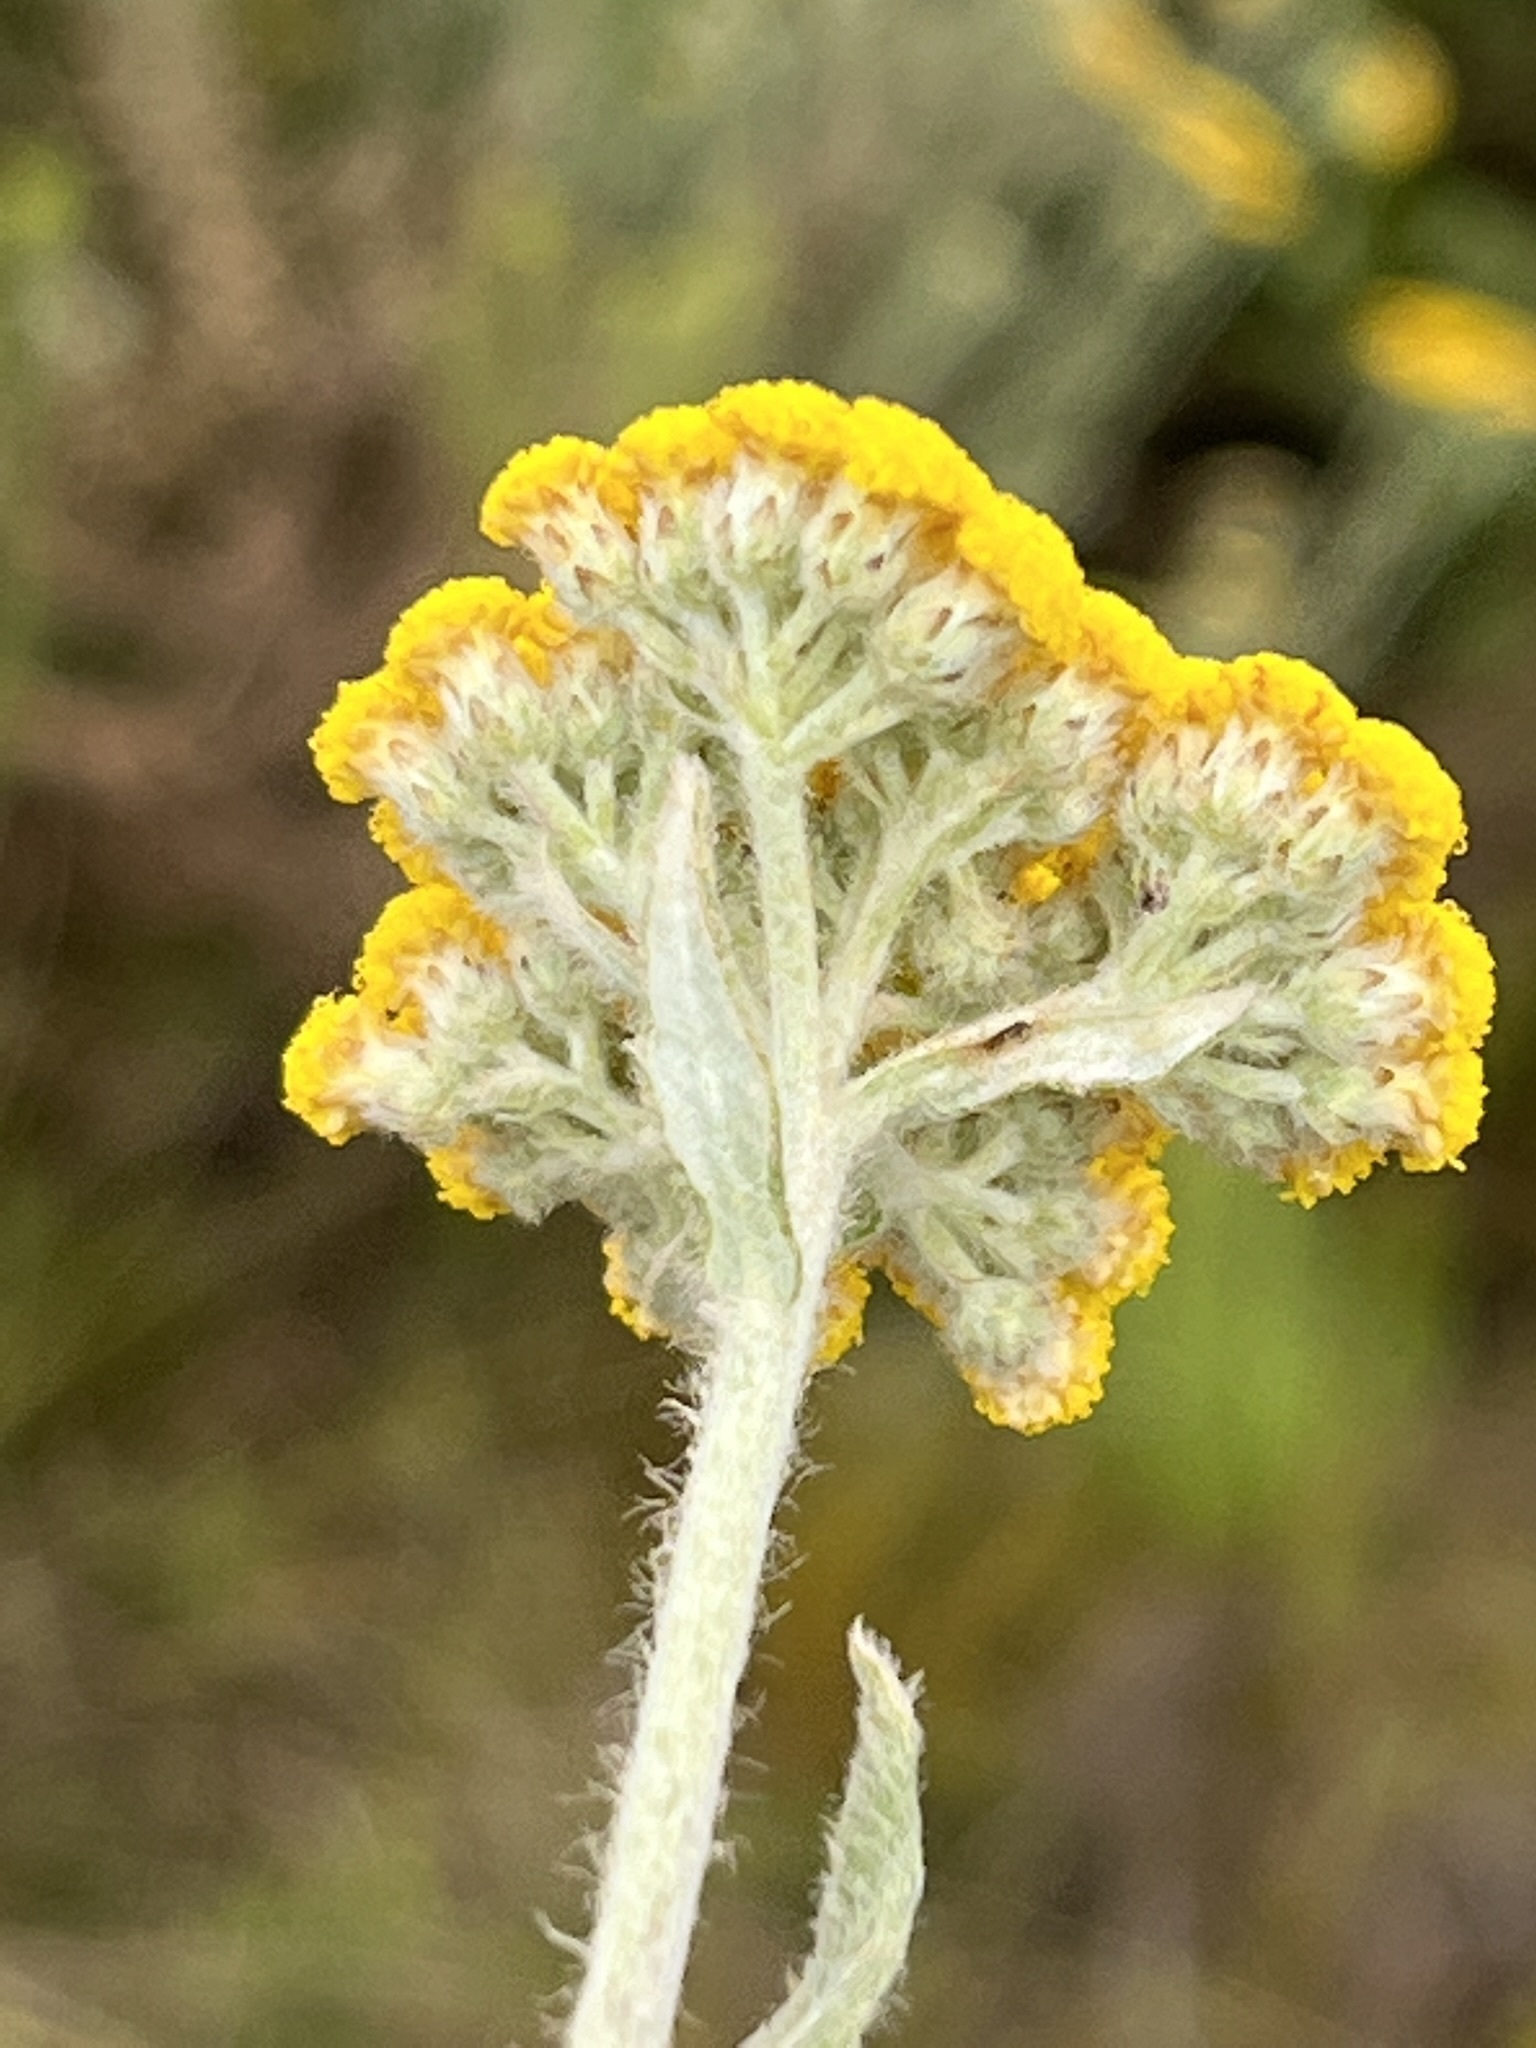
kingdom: Plantae
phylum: Tracheophyta
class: Magnoliopsida
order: Asterales
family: Asteraceae
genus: Helichrysum
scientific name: Helichrysum dasyanthum
